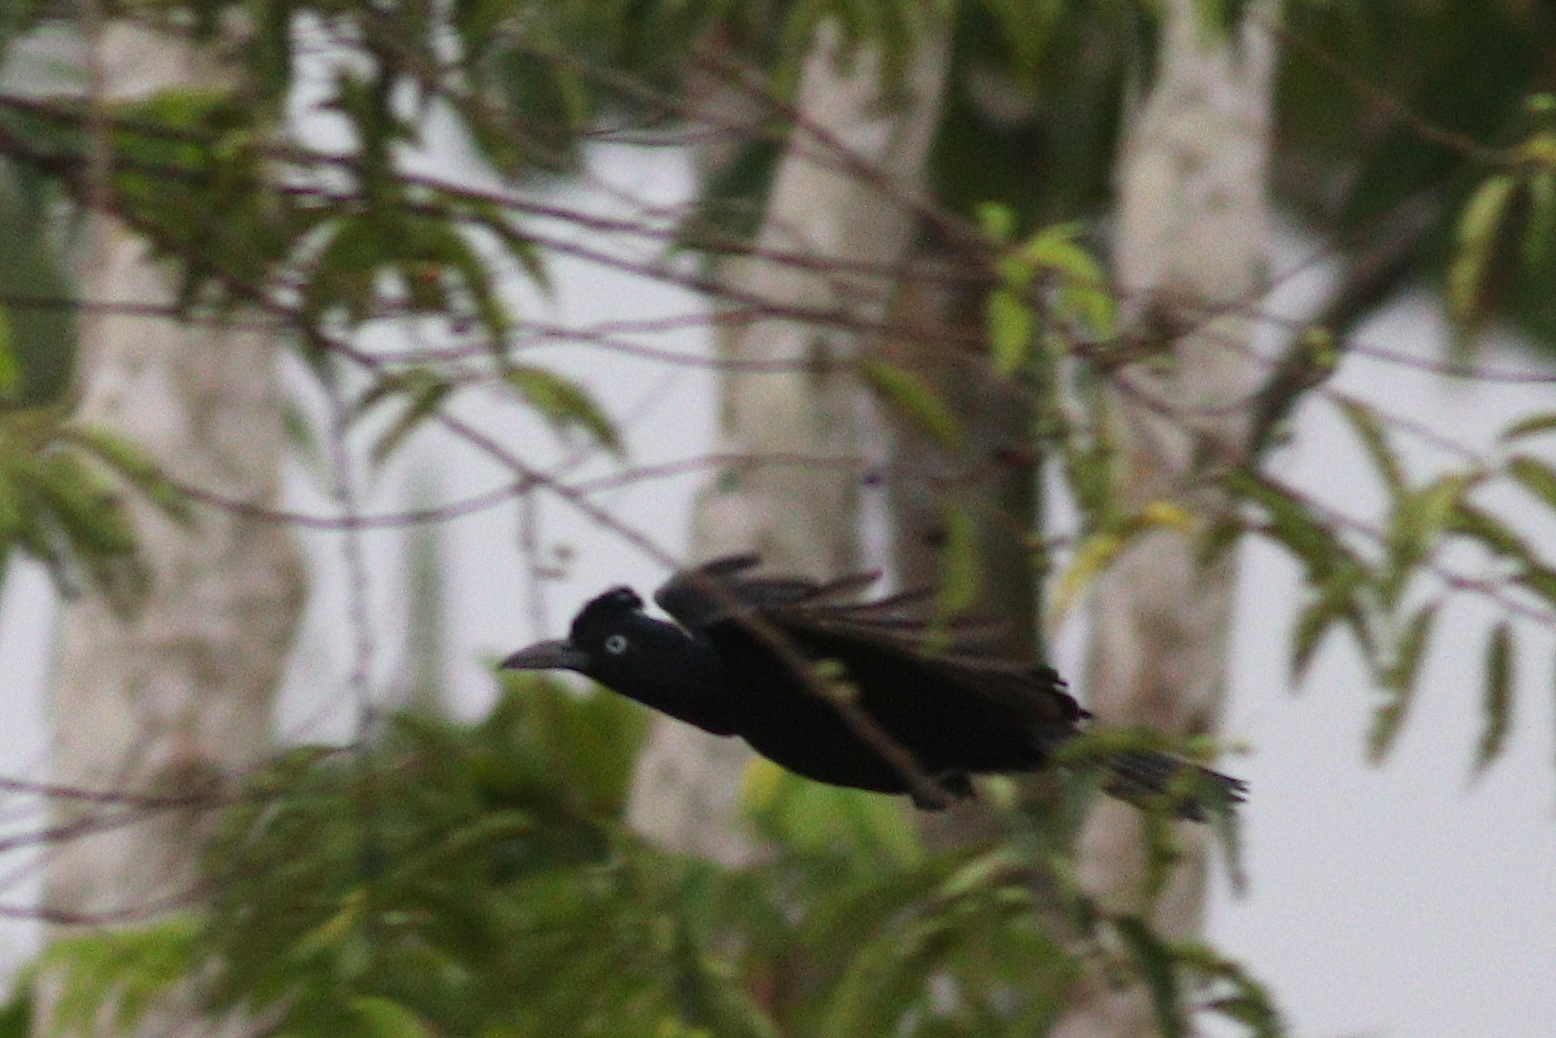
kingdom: Animalia
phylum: Chordata
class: Aves
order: Passeriformes
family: Cotingidae
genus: Cephalopterus
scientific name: Cephalopterus ornatus
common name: Amazonian umbrellabird
